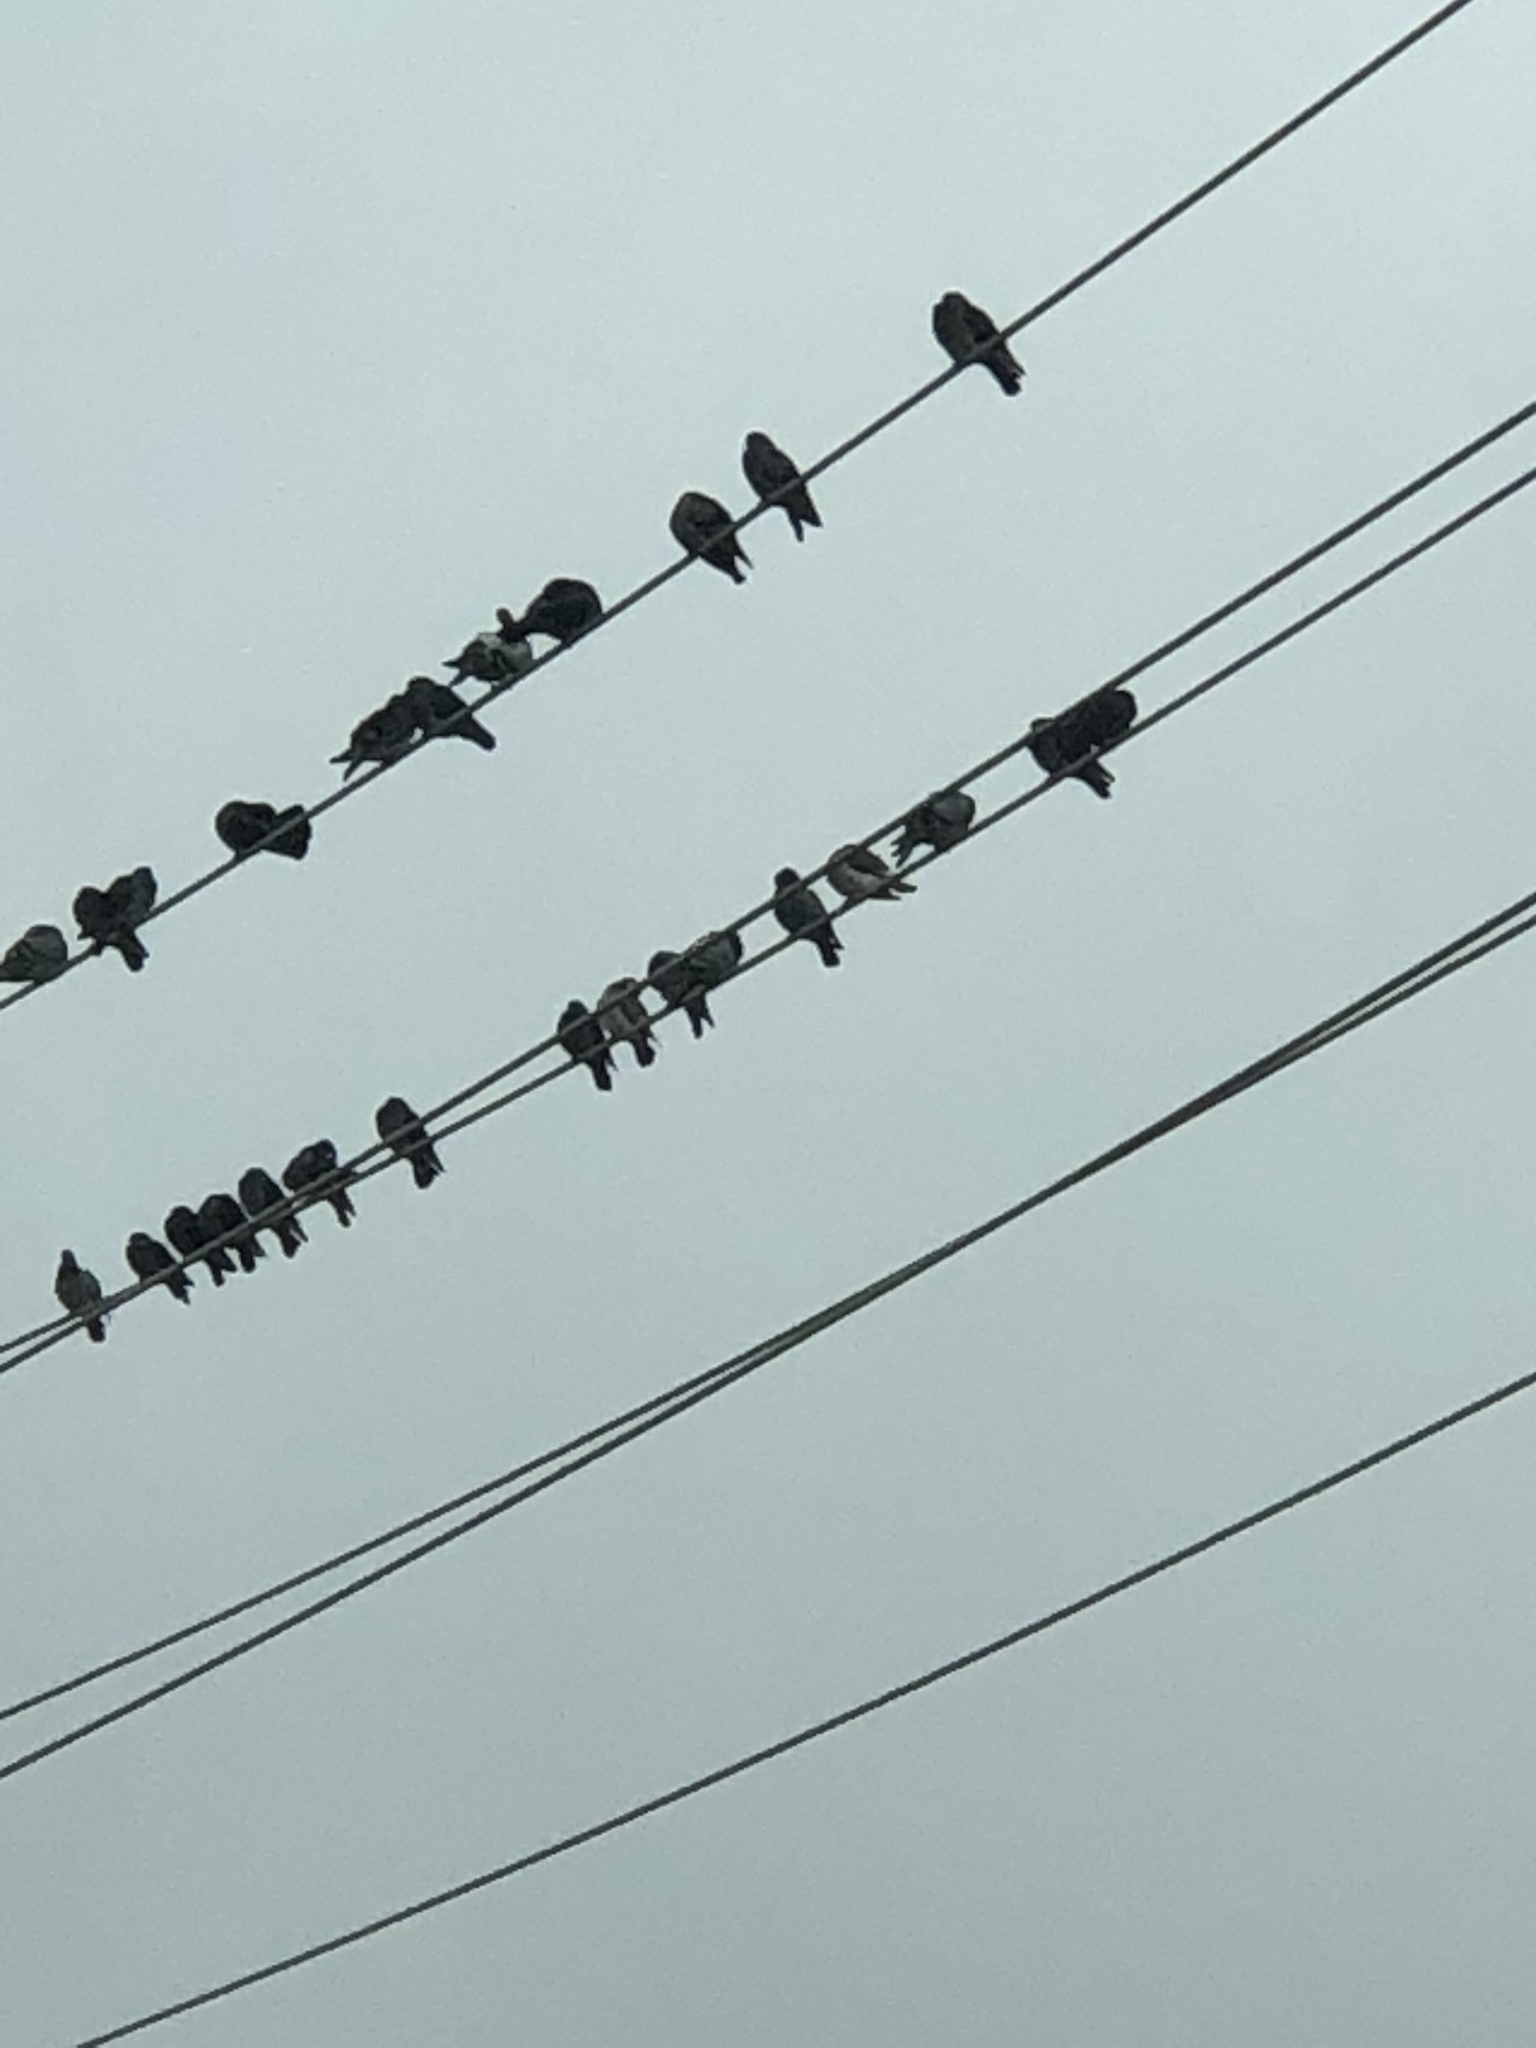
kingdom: Animalia
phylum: Chordata
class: Aves
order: Columbiformes
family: Columbidae
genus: Columba
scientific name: Columba livia
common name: Rock pigeon
